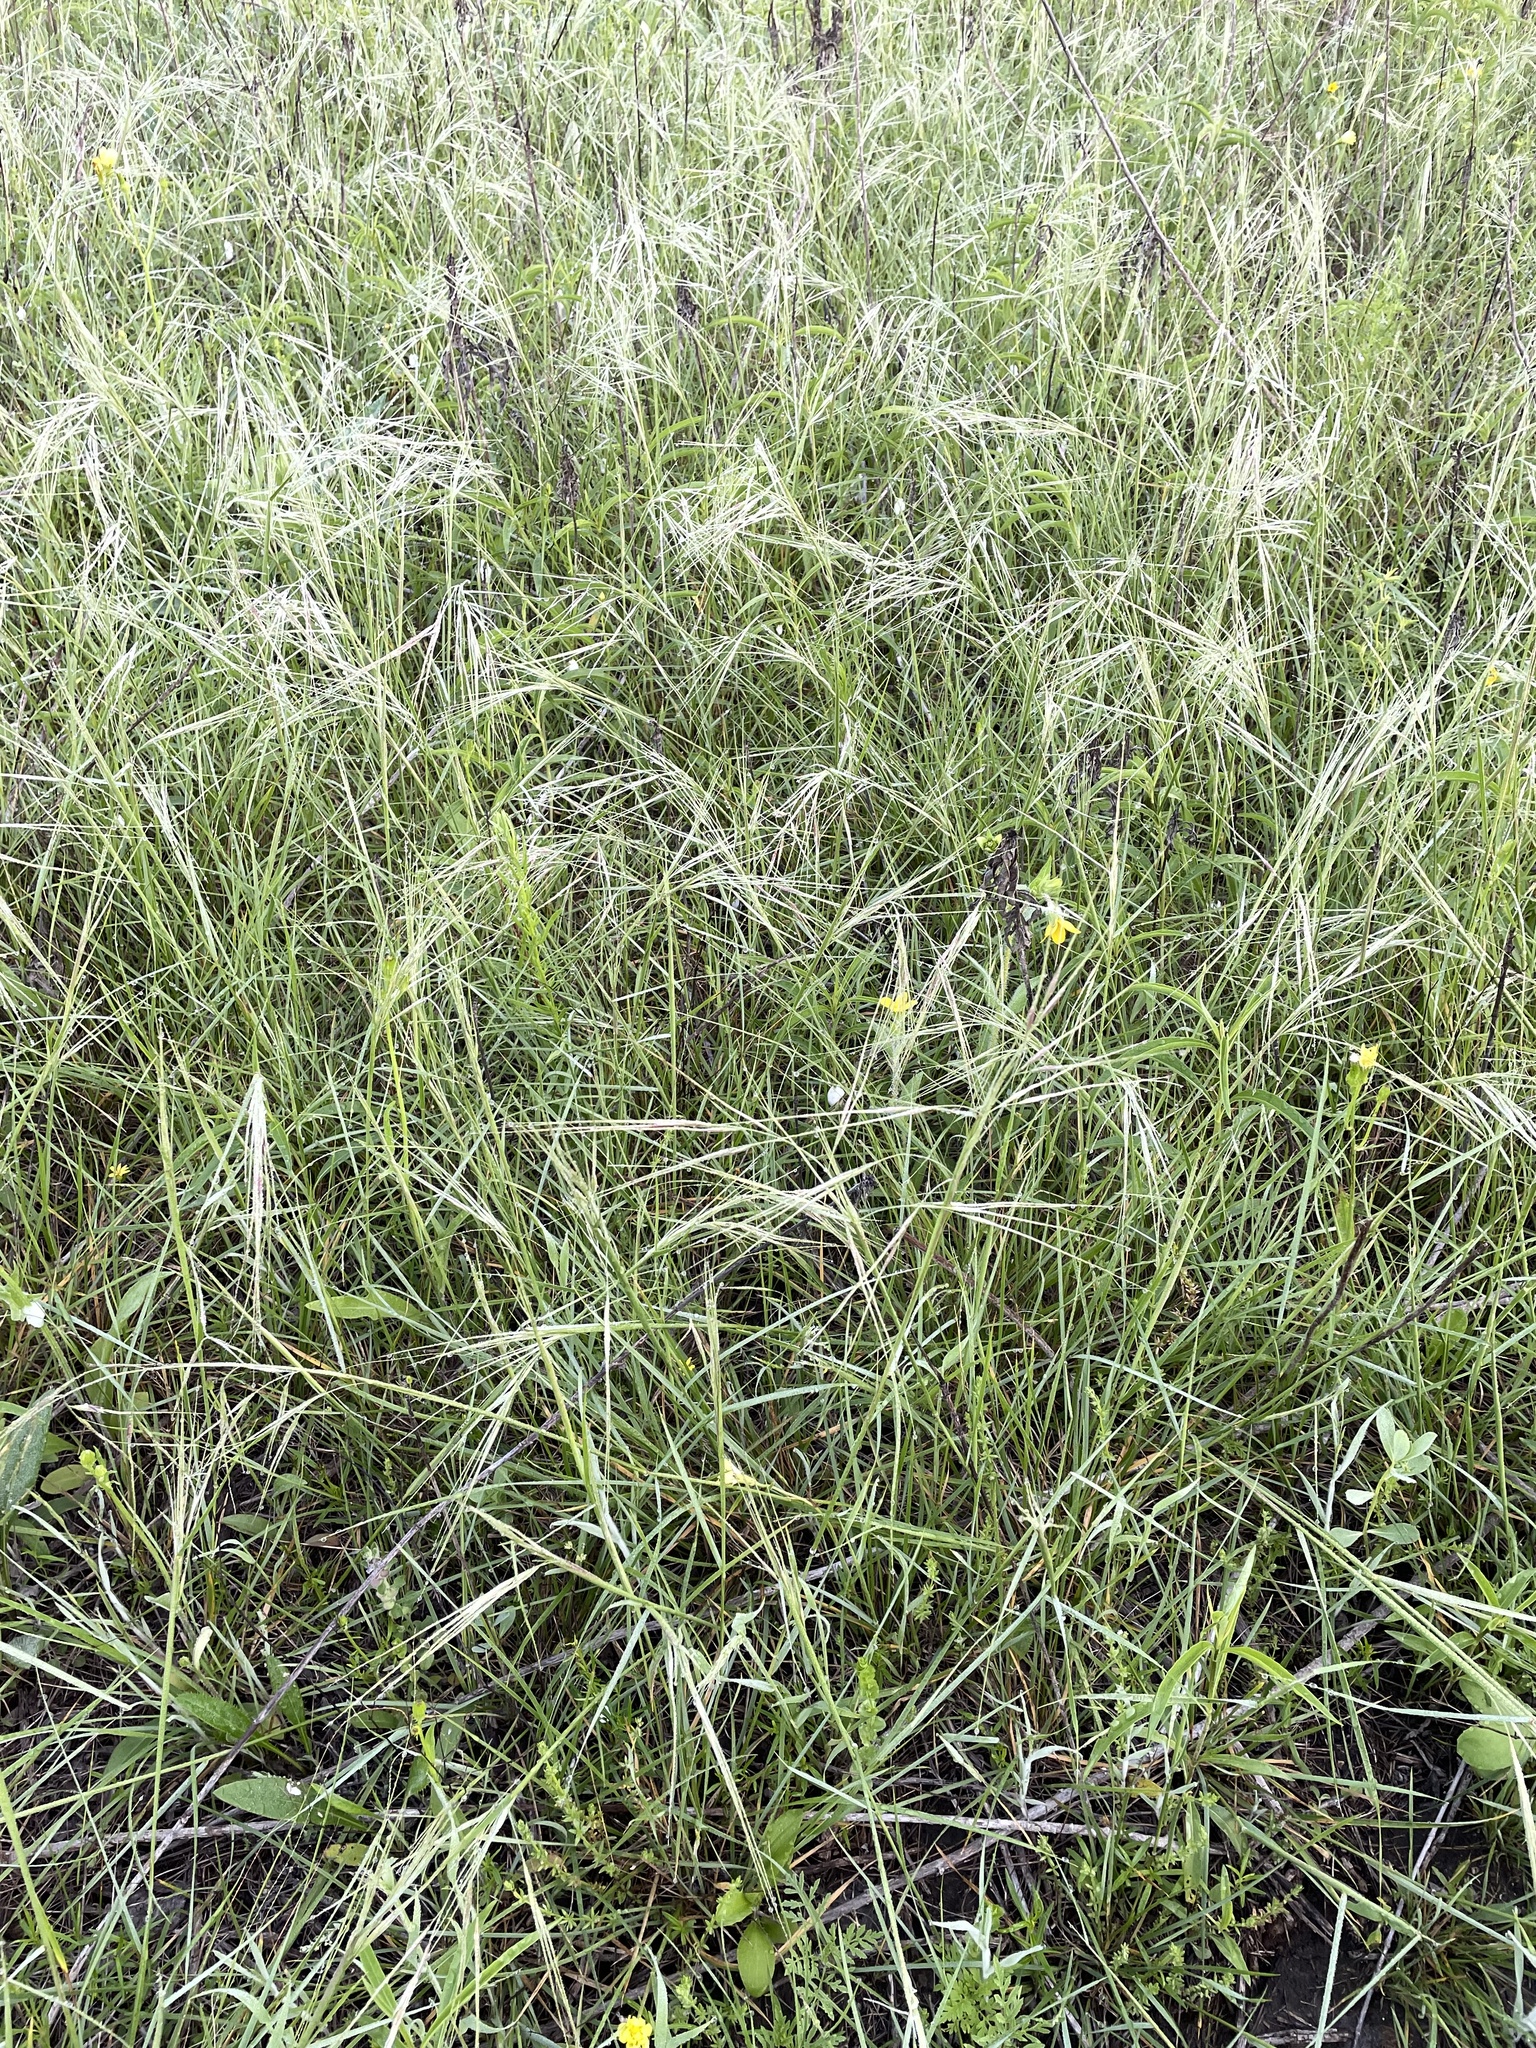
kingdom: Plantae
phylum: Tracheophyta
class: Liliopsida
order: Poales
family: Poaceae
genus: Nassella
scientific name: Nassella leucotricha
